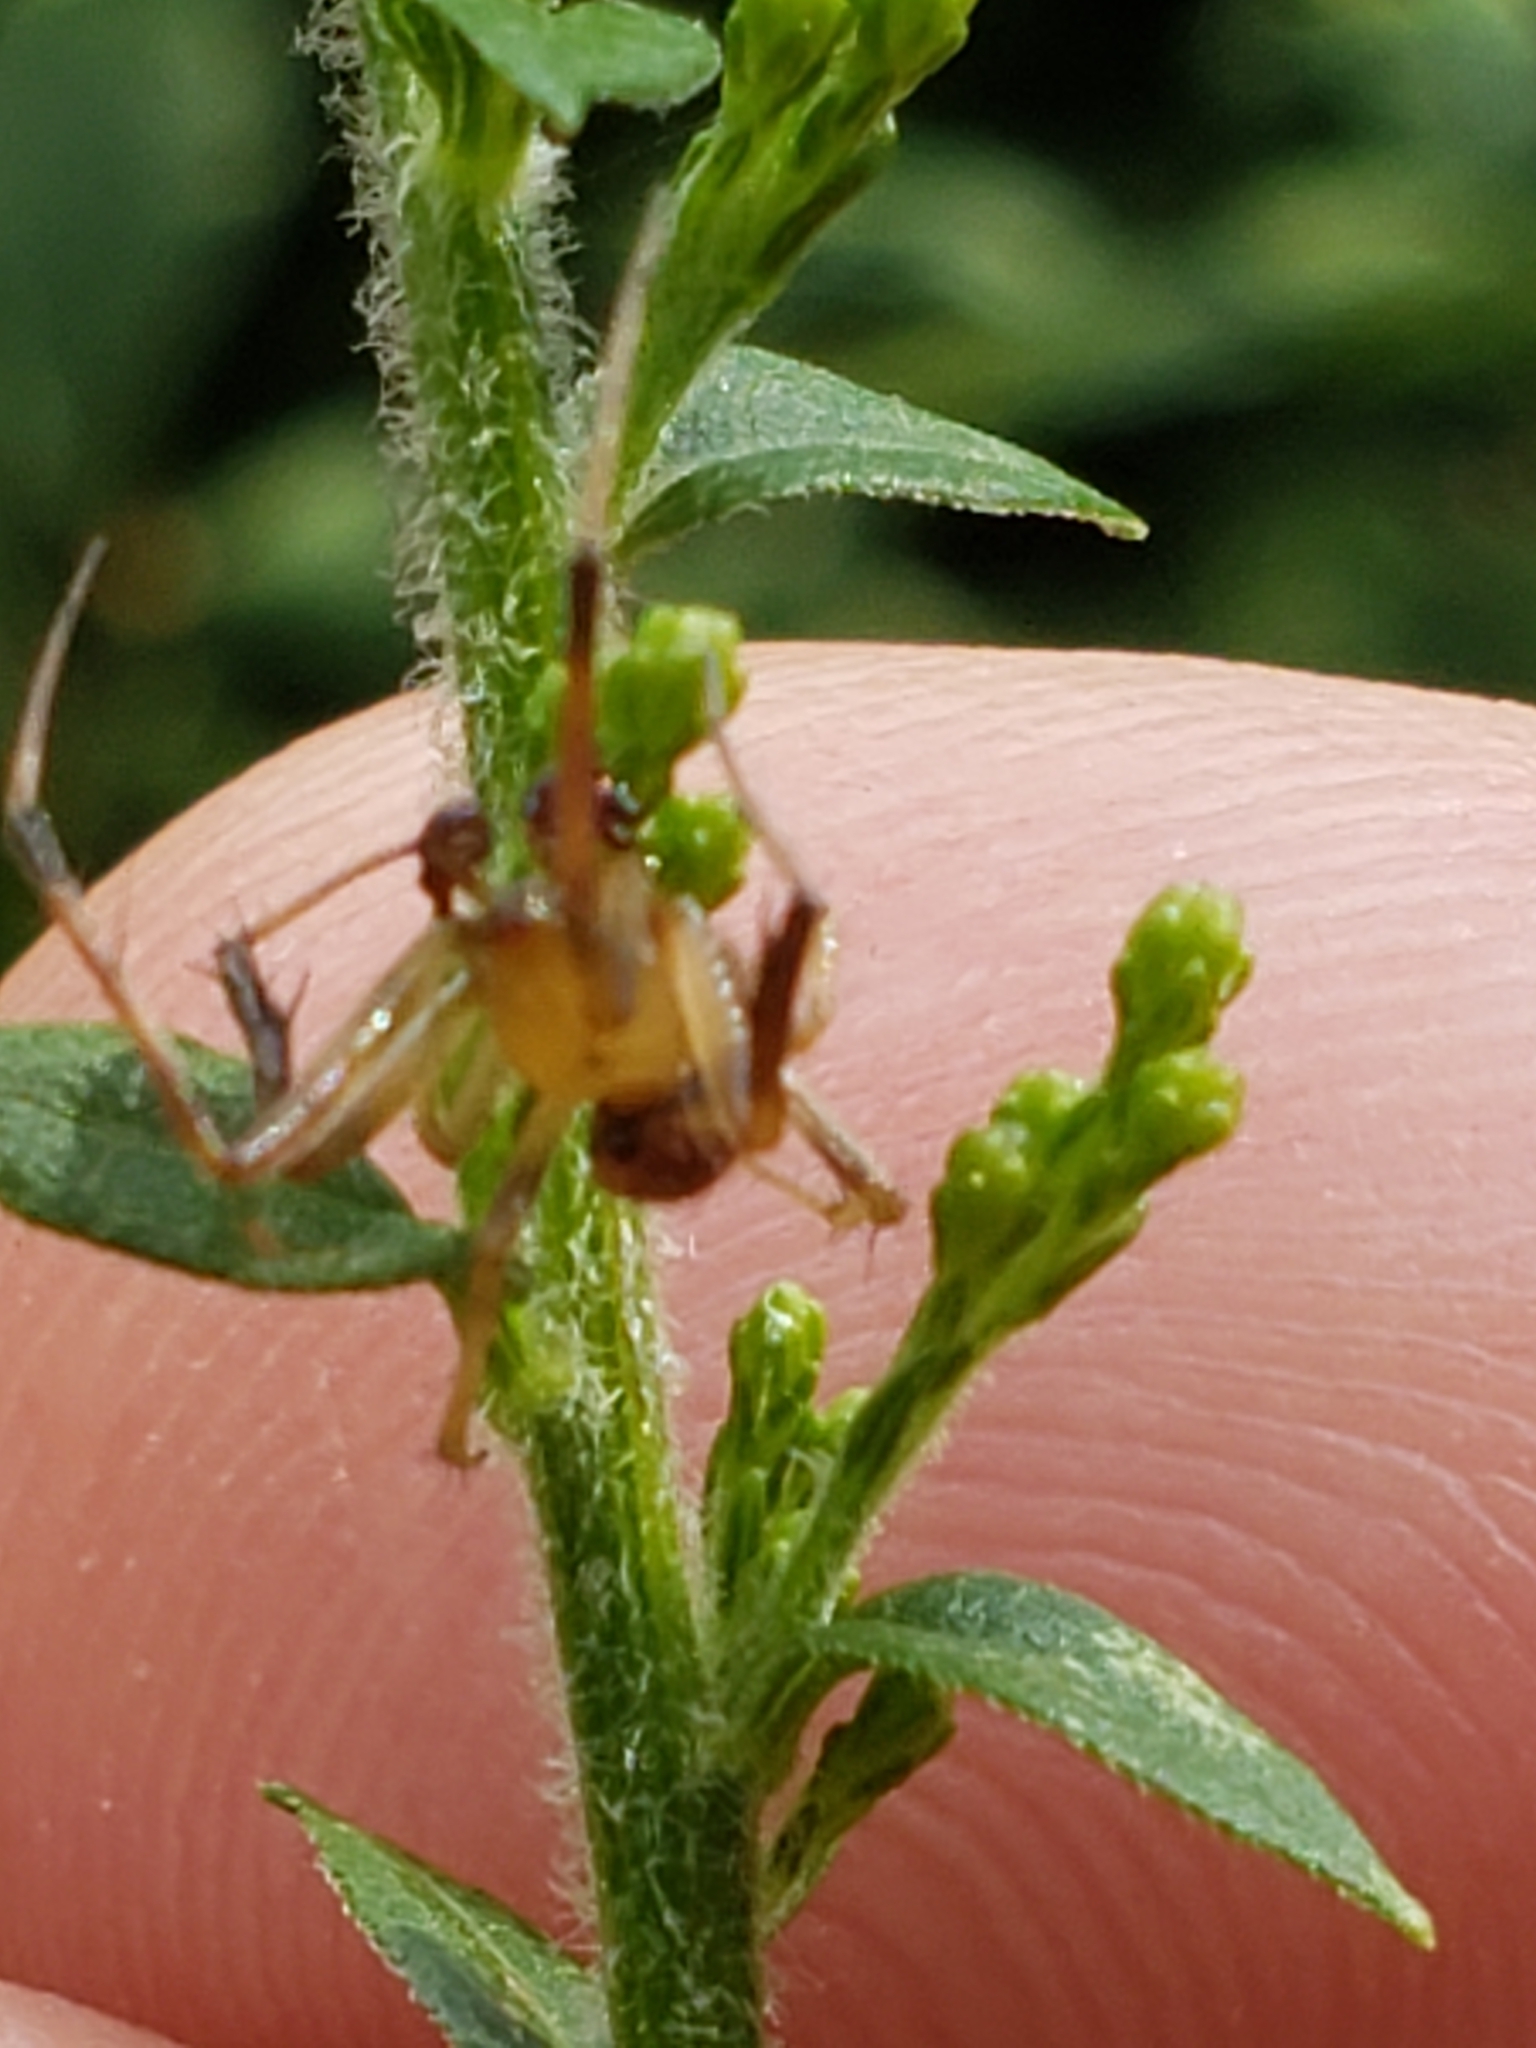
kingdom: Animalia
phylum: Arthropoda
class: Arachnida
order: Araneae
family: Araneidae
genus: Acacesia
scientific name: Acacesia hamata
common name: Orb weavers
